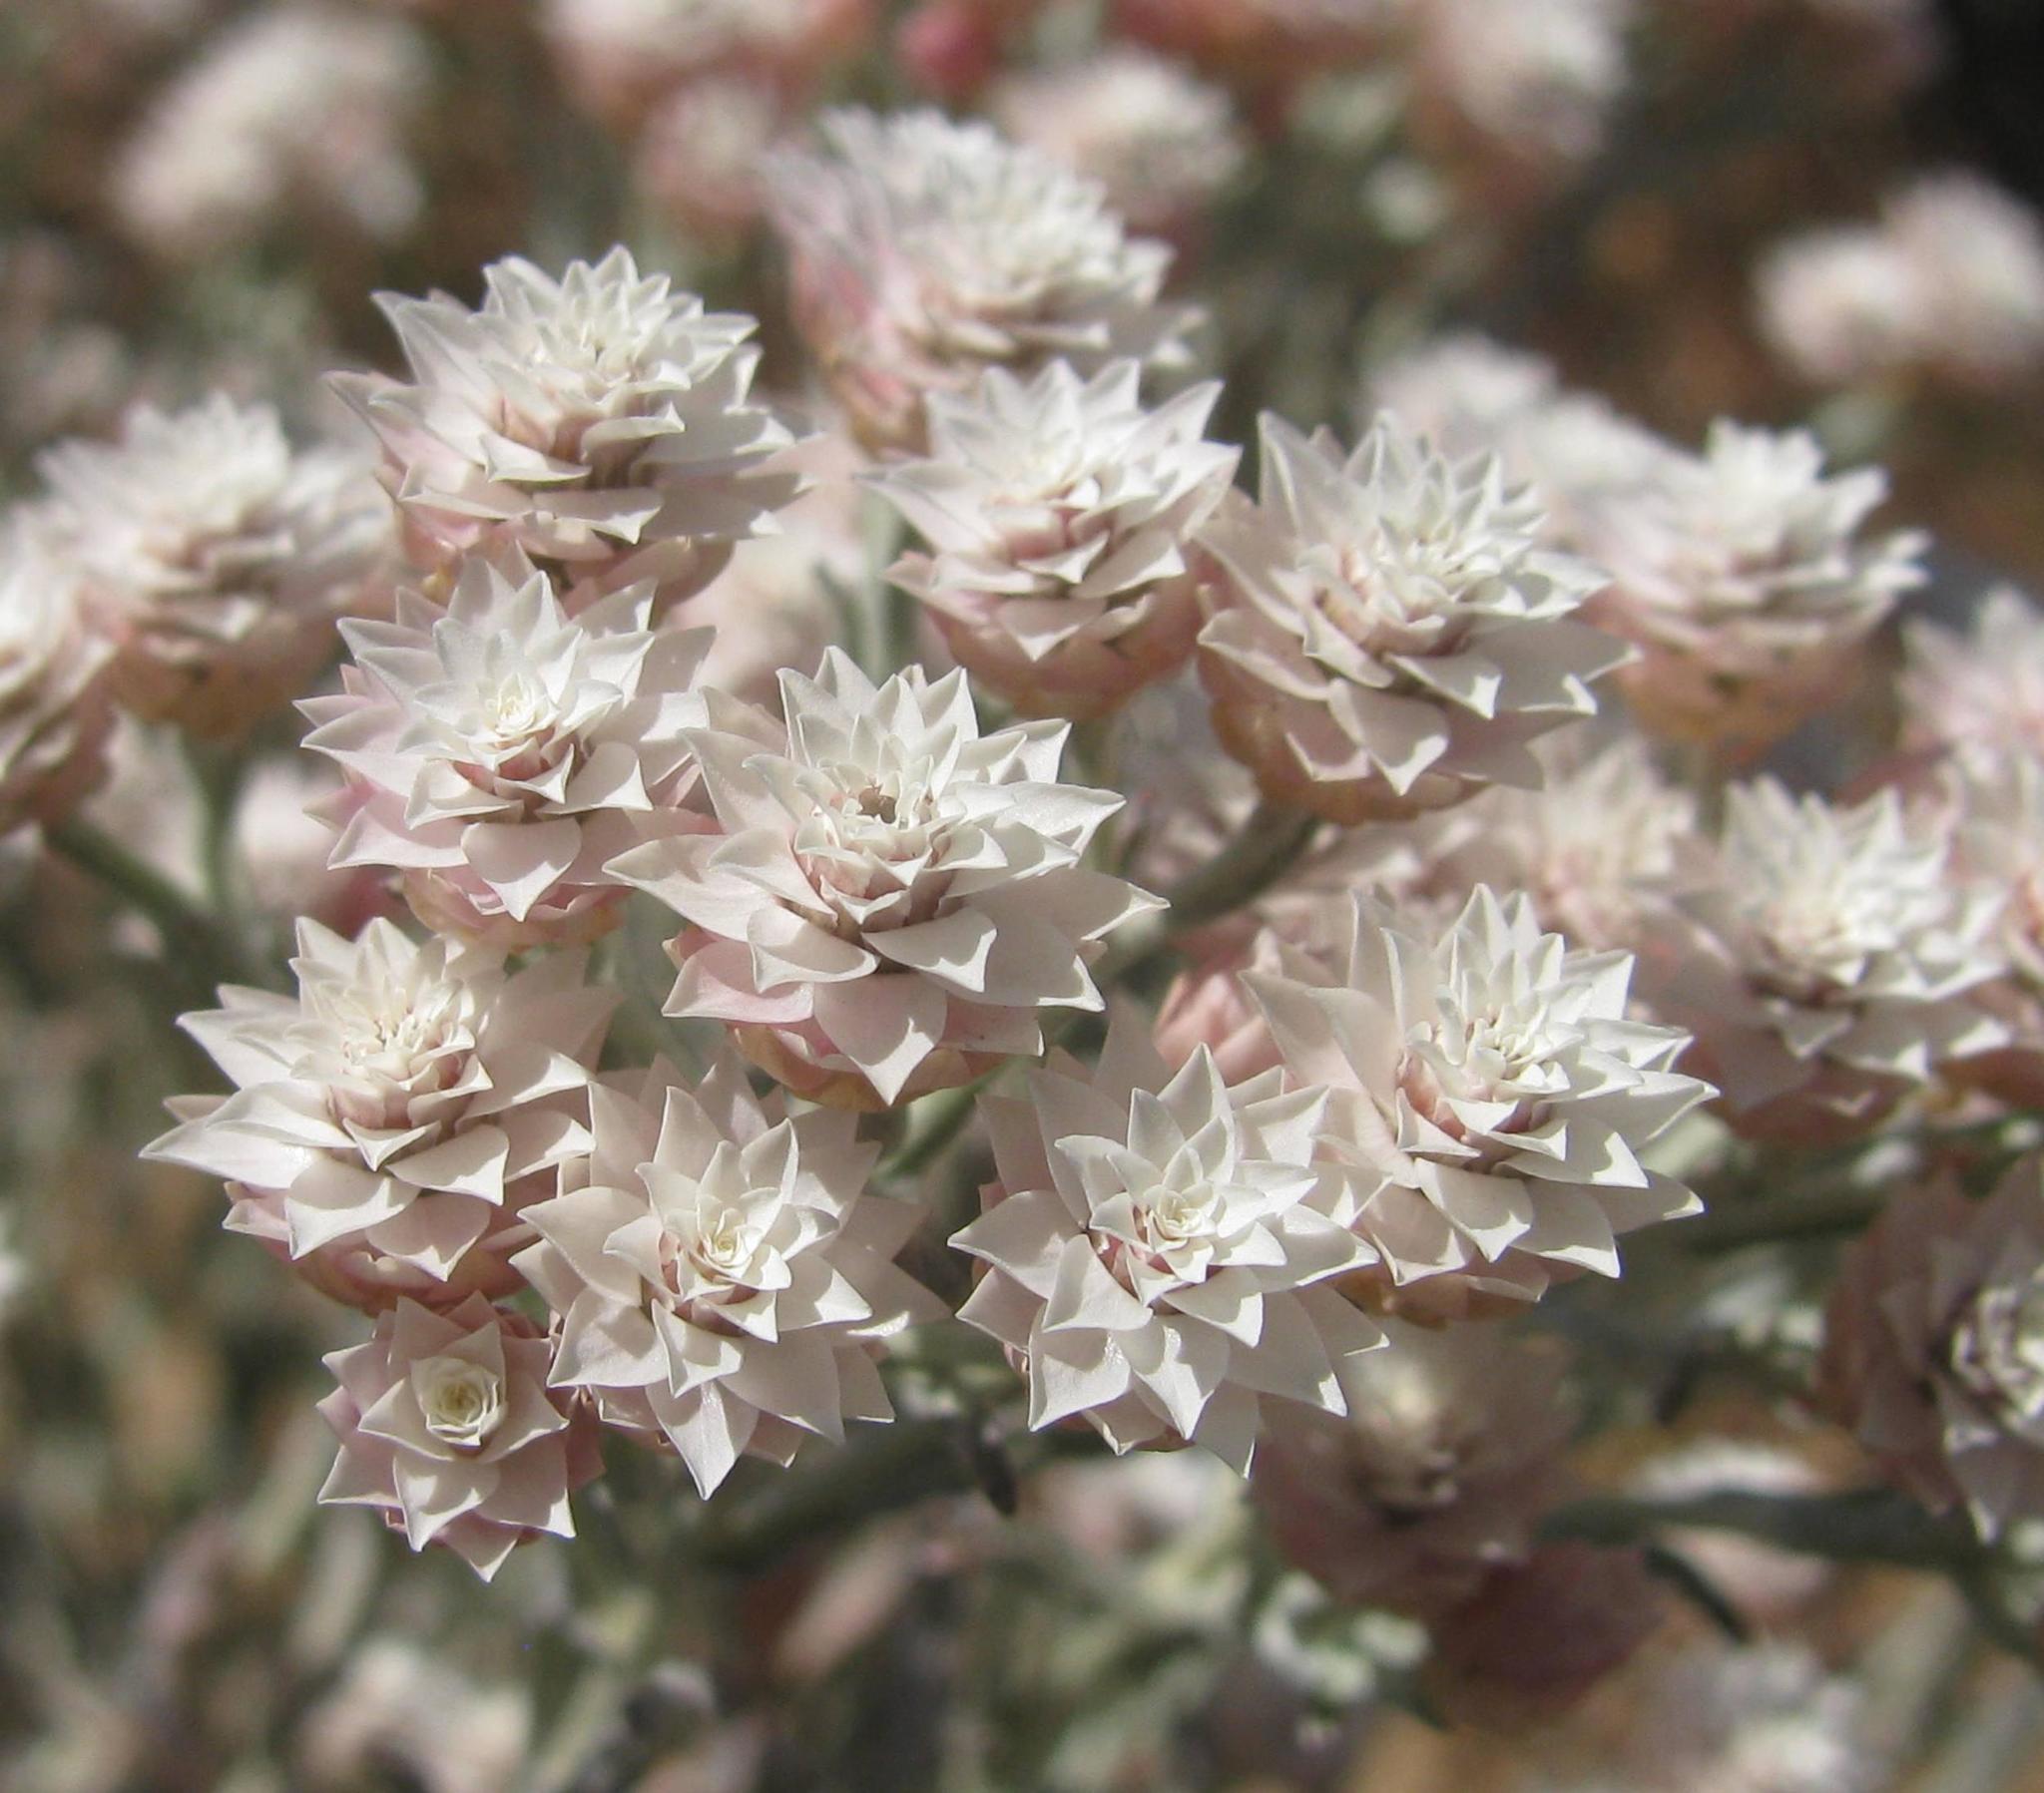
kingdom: Plantae
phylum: Tracheophyta
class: Magnoliopsida
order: Asterales
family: Asteraceae
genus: Helichrysum
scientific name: Helichrysum stellatum
